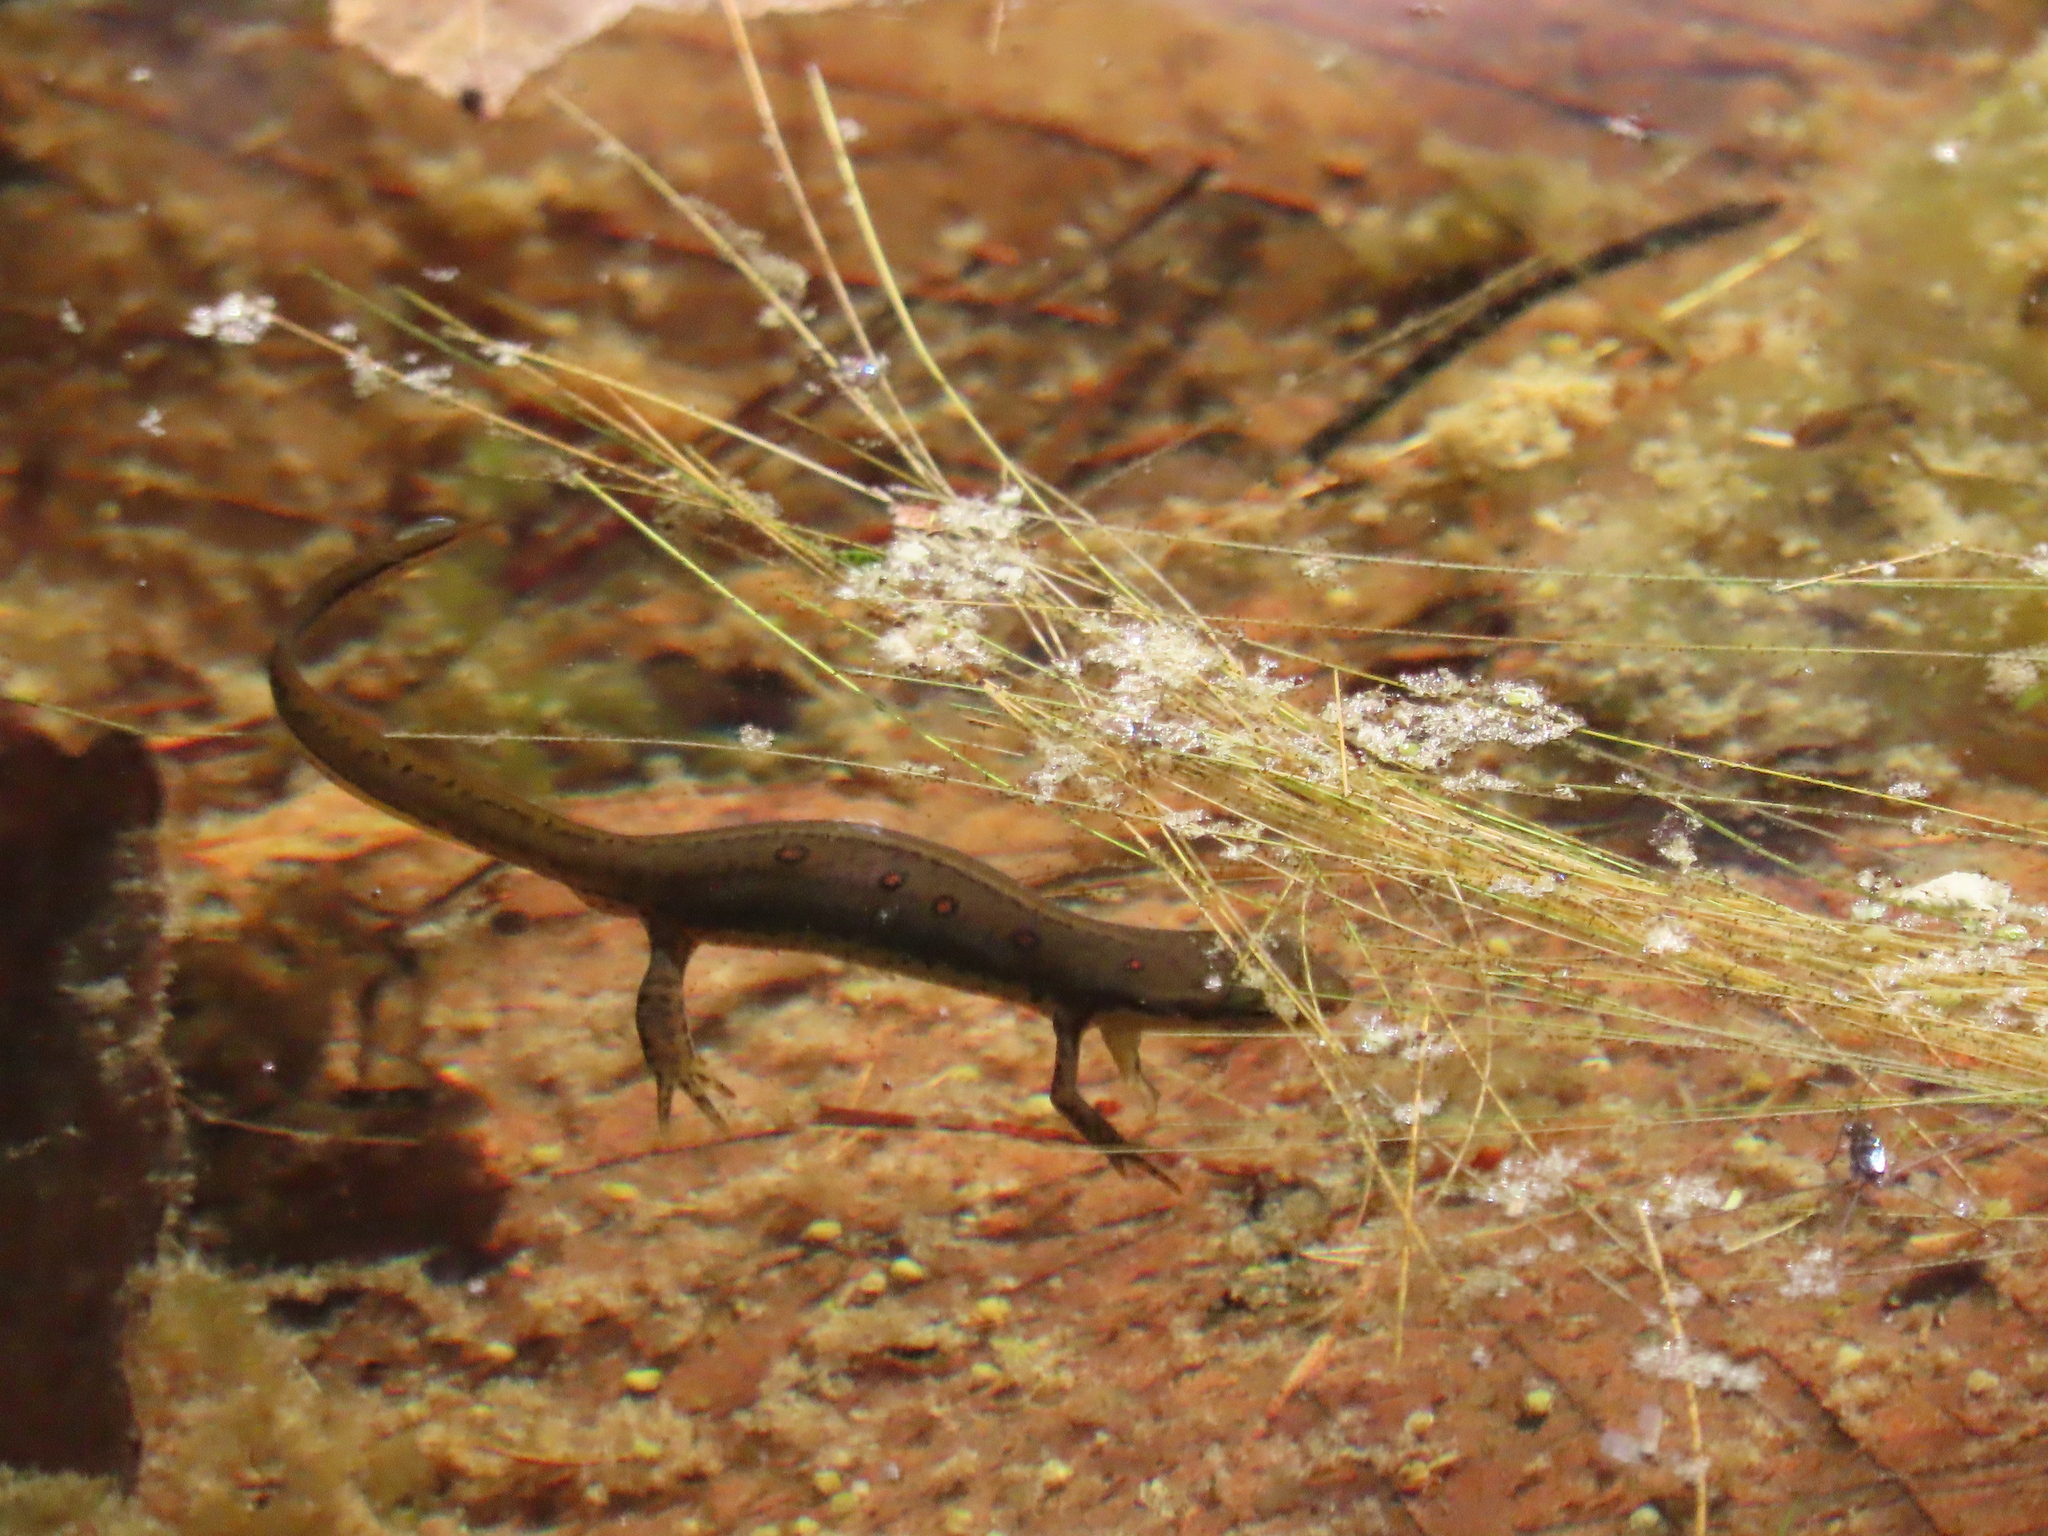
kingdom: Animalia
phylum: Chordata
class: Amphibia
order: Caudata
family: Salamandridae
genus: Notophthalmus
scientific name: Notophthalmus viridescens
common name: Eastern newt
